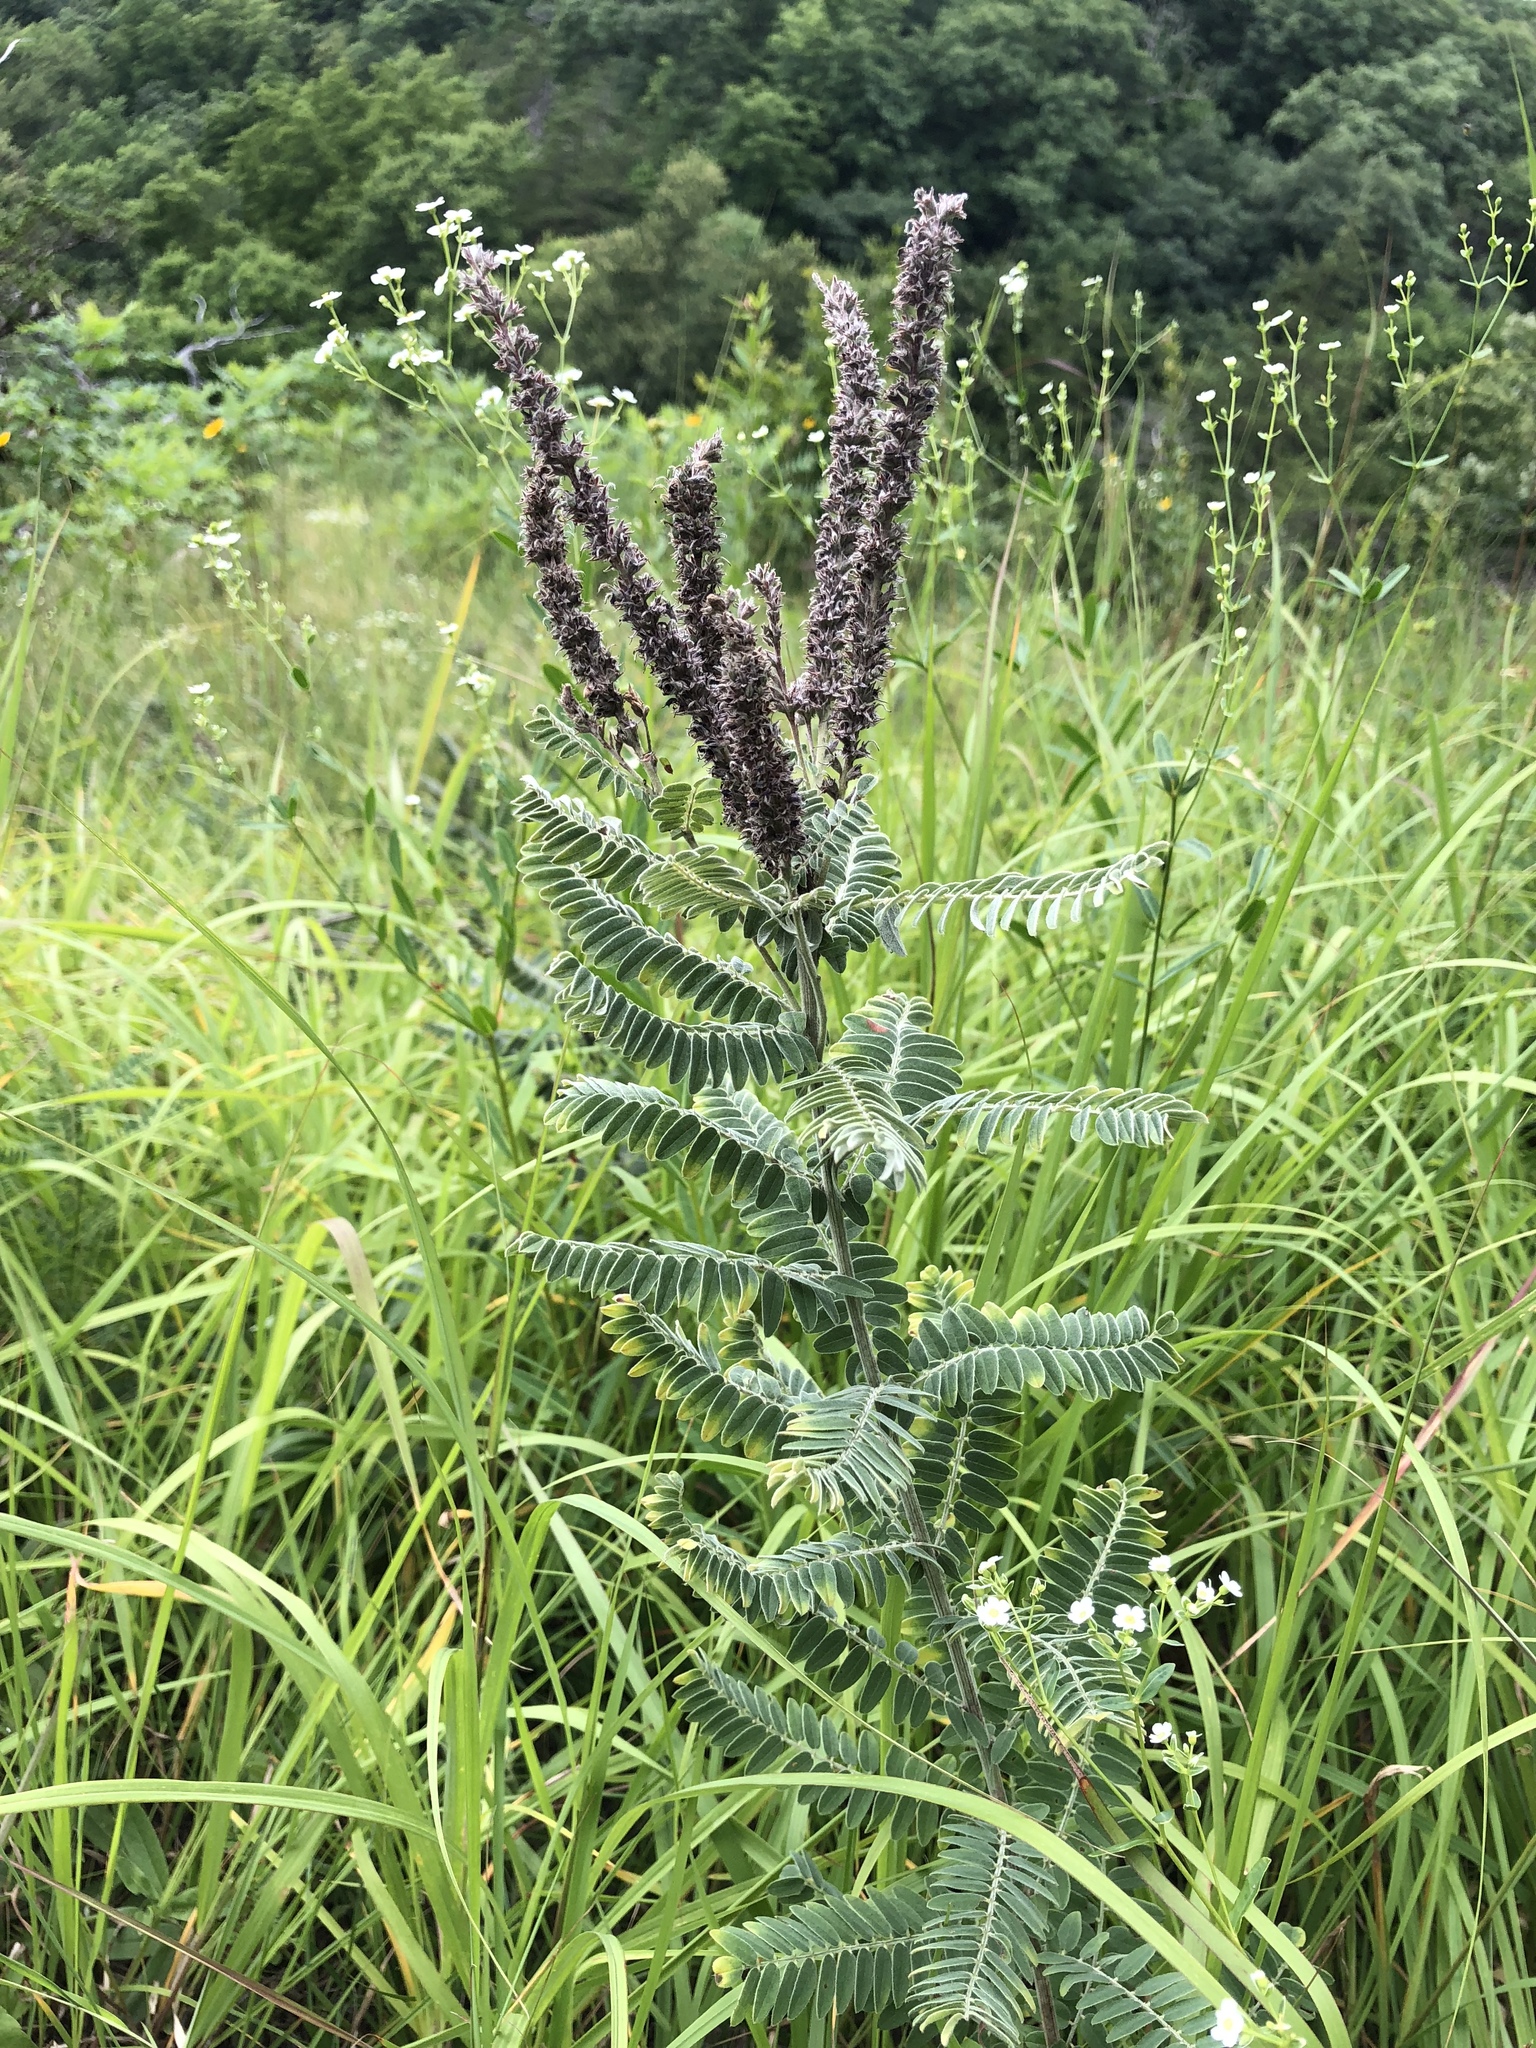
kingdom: Plantae
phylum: Tracheophyta
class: Magnoliopsida
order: Fabales
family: Fabaceae
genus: Amorpha
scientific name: Amorpha canescens
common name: Leadplant
